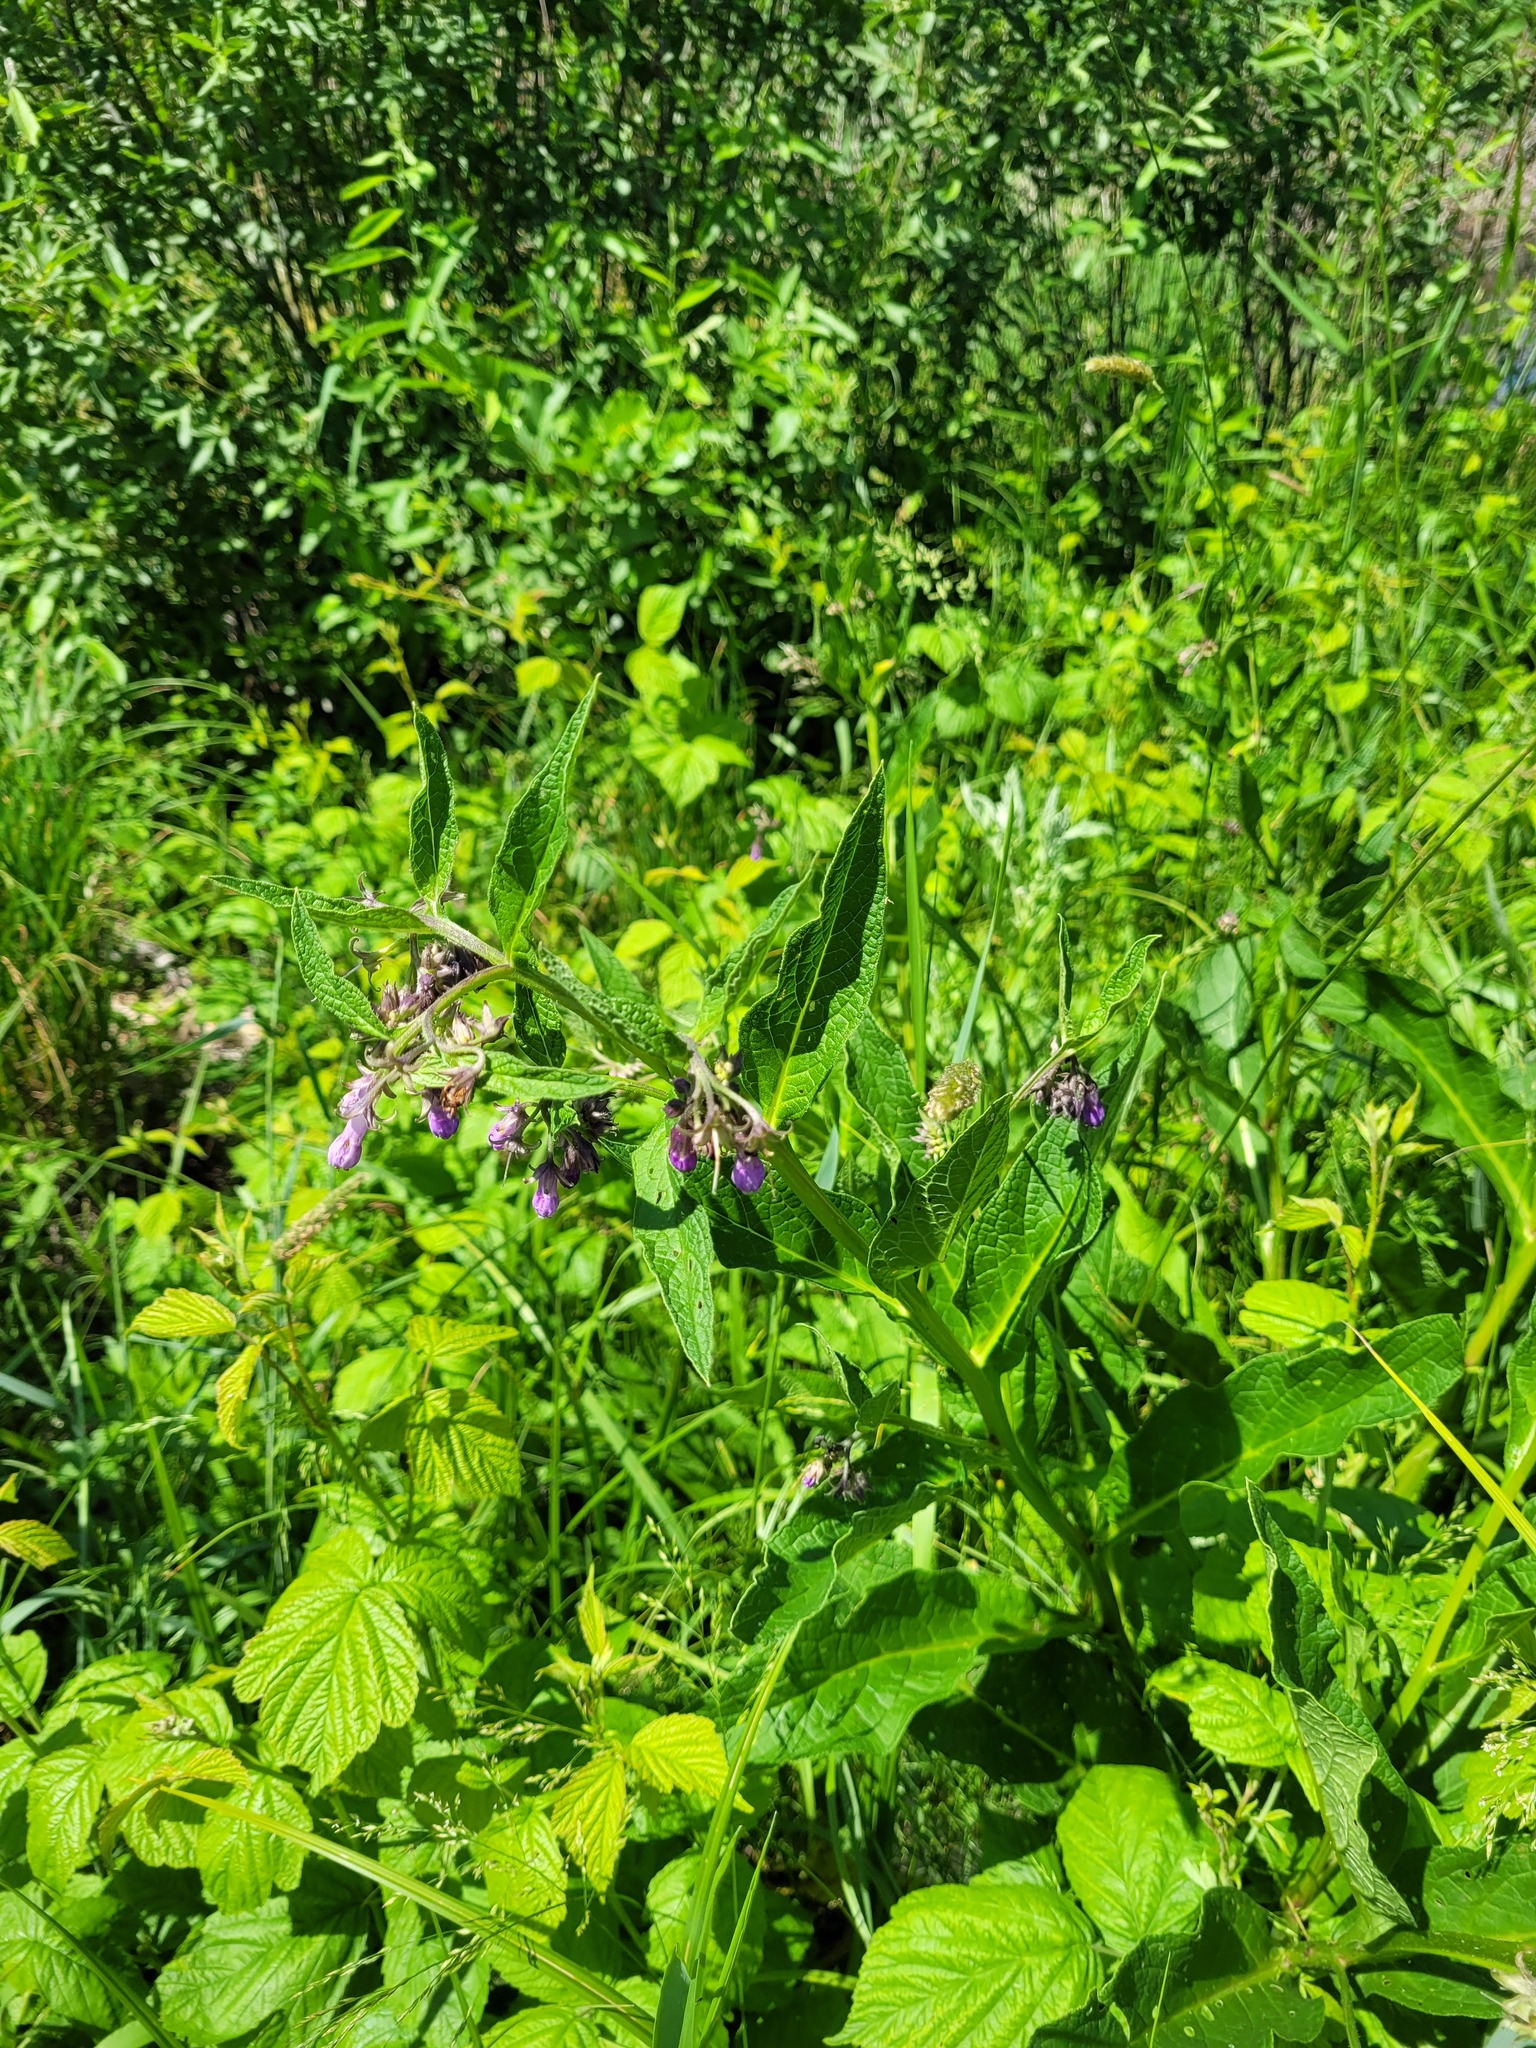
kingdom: Plantae
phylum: Tracheophyta
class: Magnoliopsida
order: Boraginales
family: Boraginaceae
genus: Symphytum
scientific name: Symphytum officinale
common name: Common comfrey
